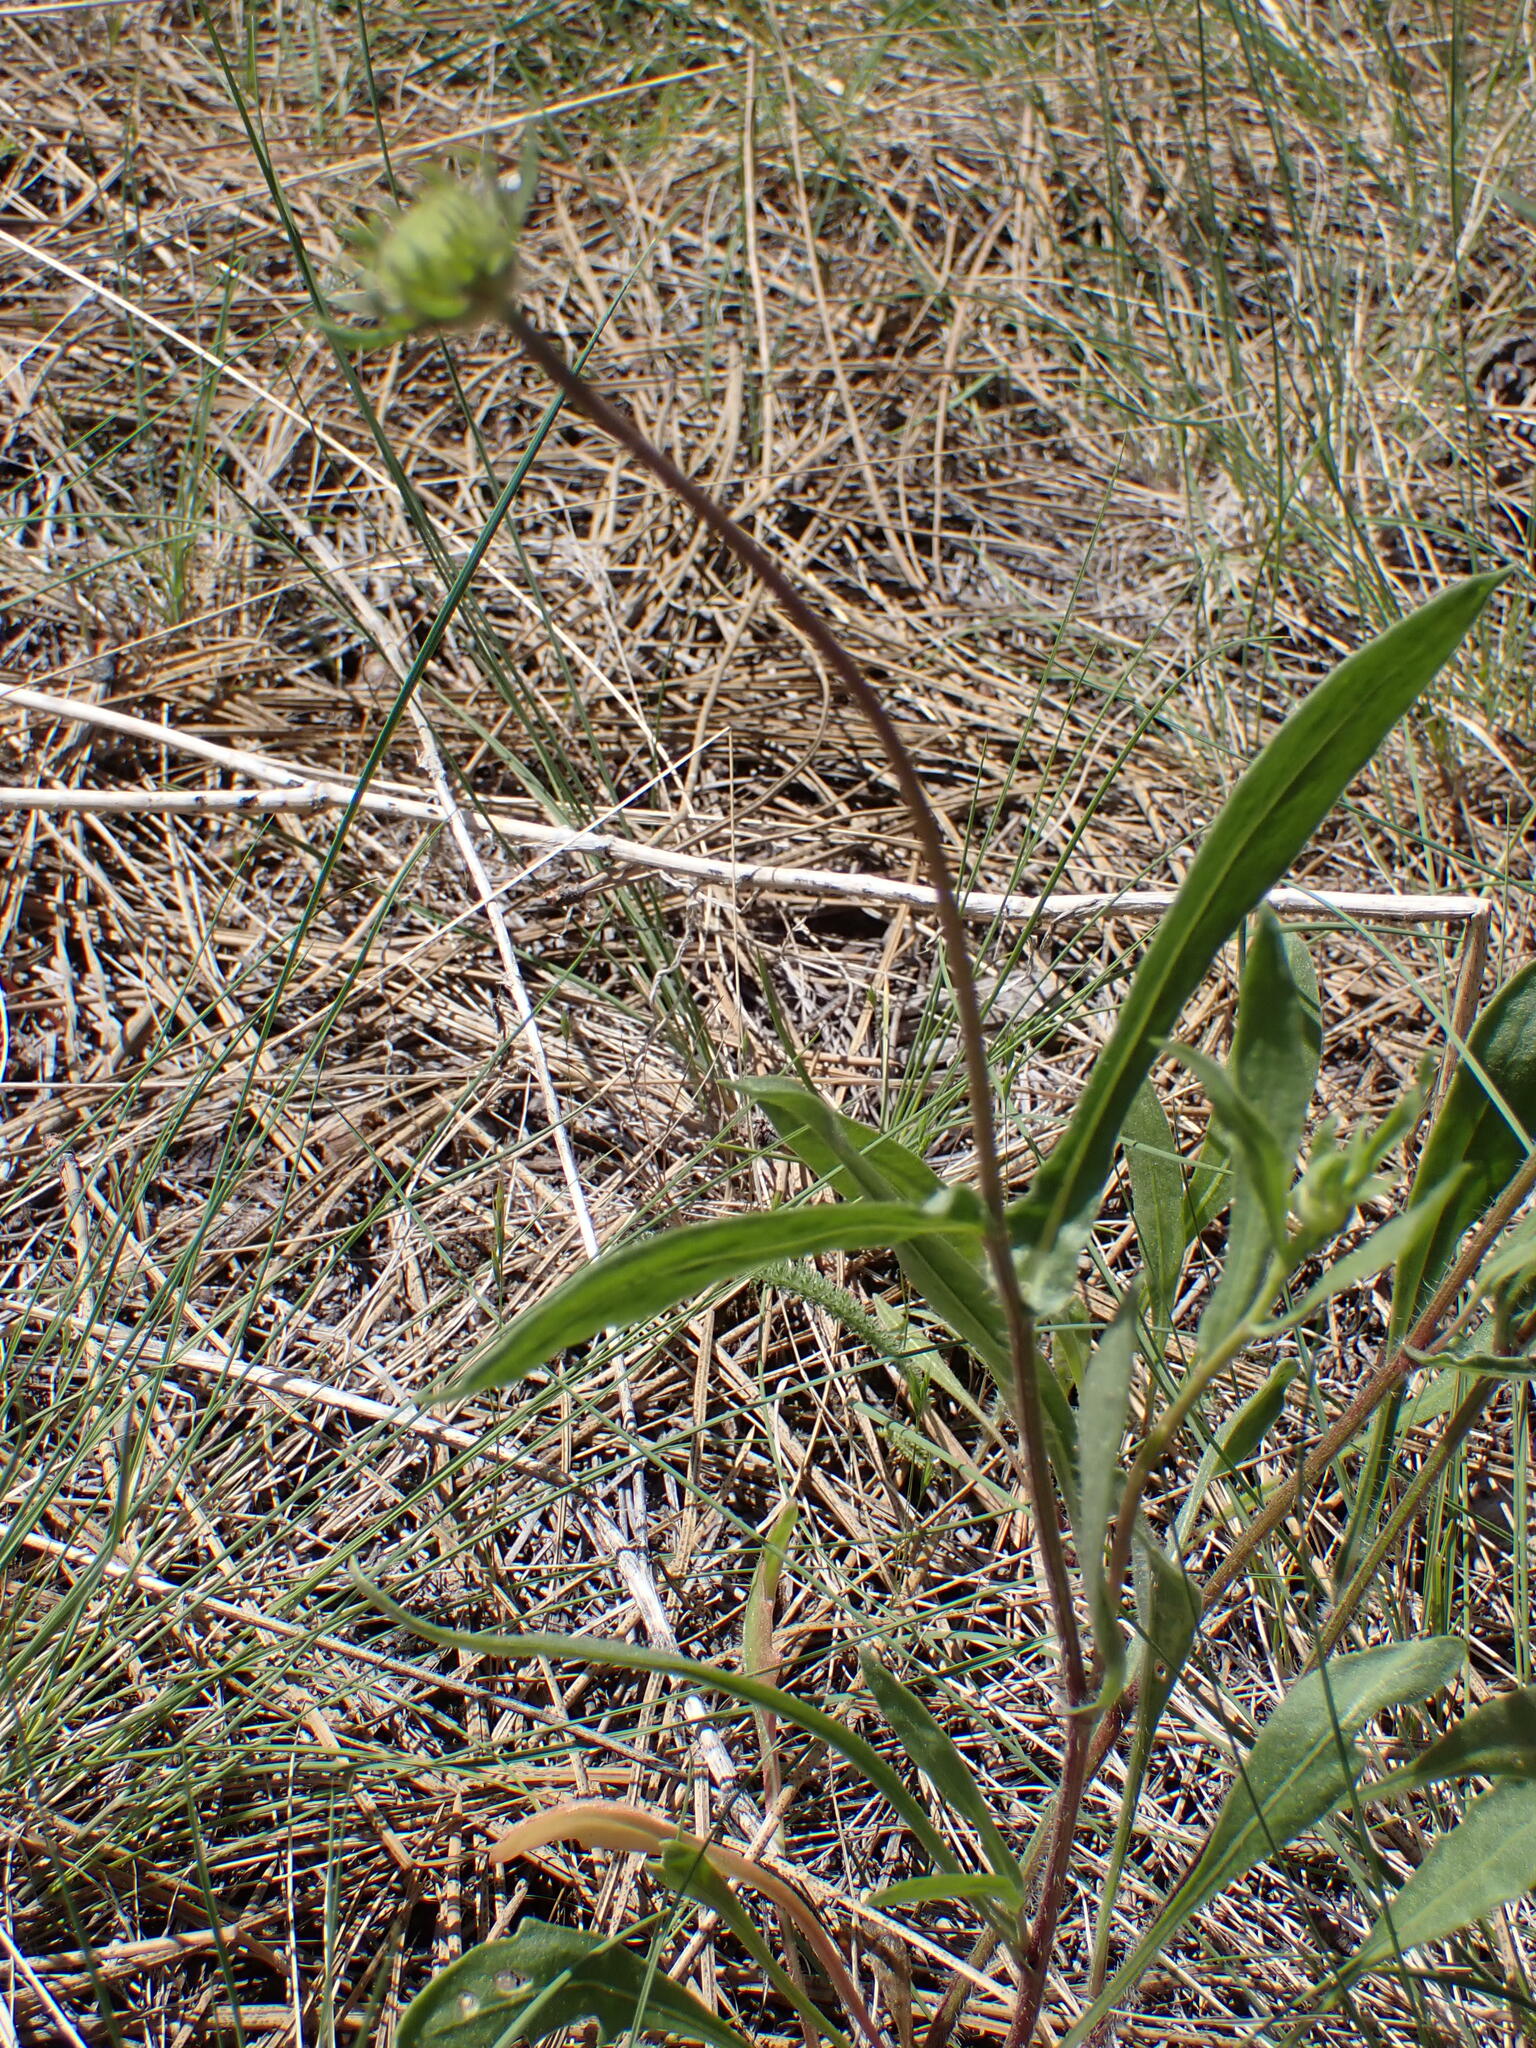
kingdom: Plantae
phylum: Tracheophyta
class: Magnoliopsida
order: Asterales
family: Asteraceae
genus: Gaillardia
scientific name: Gaillardia aristata
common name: Blanket-flower
